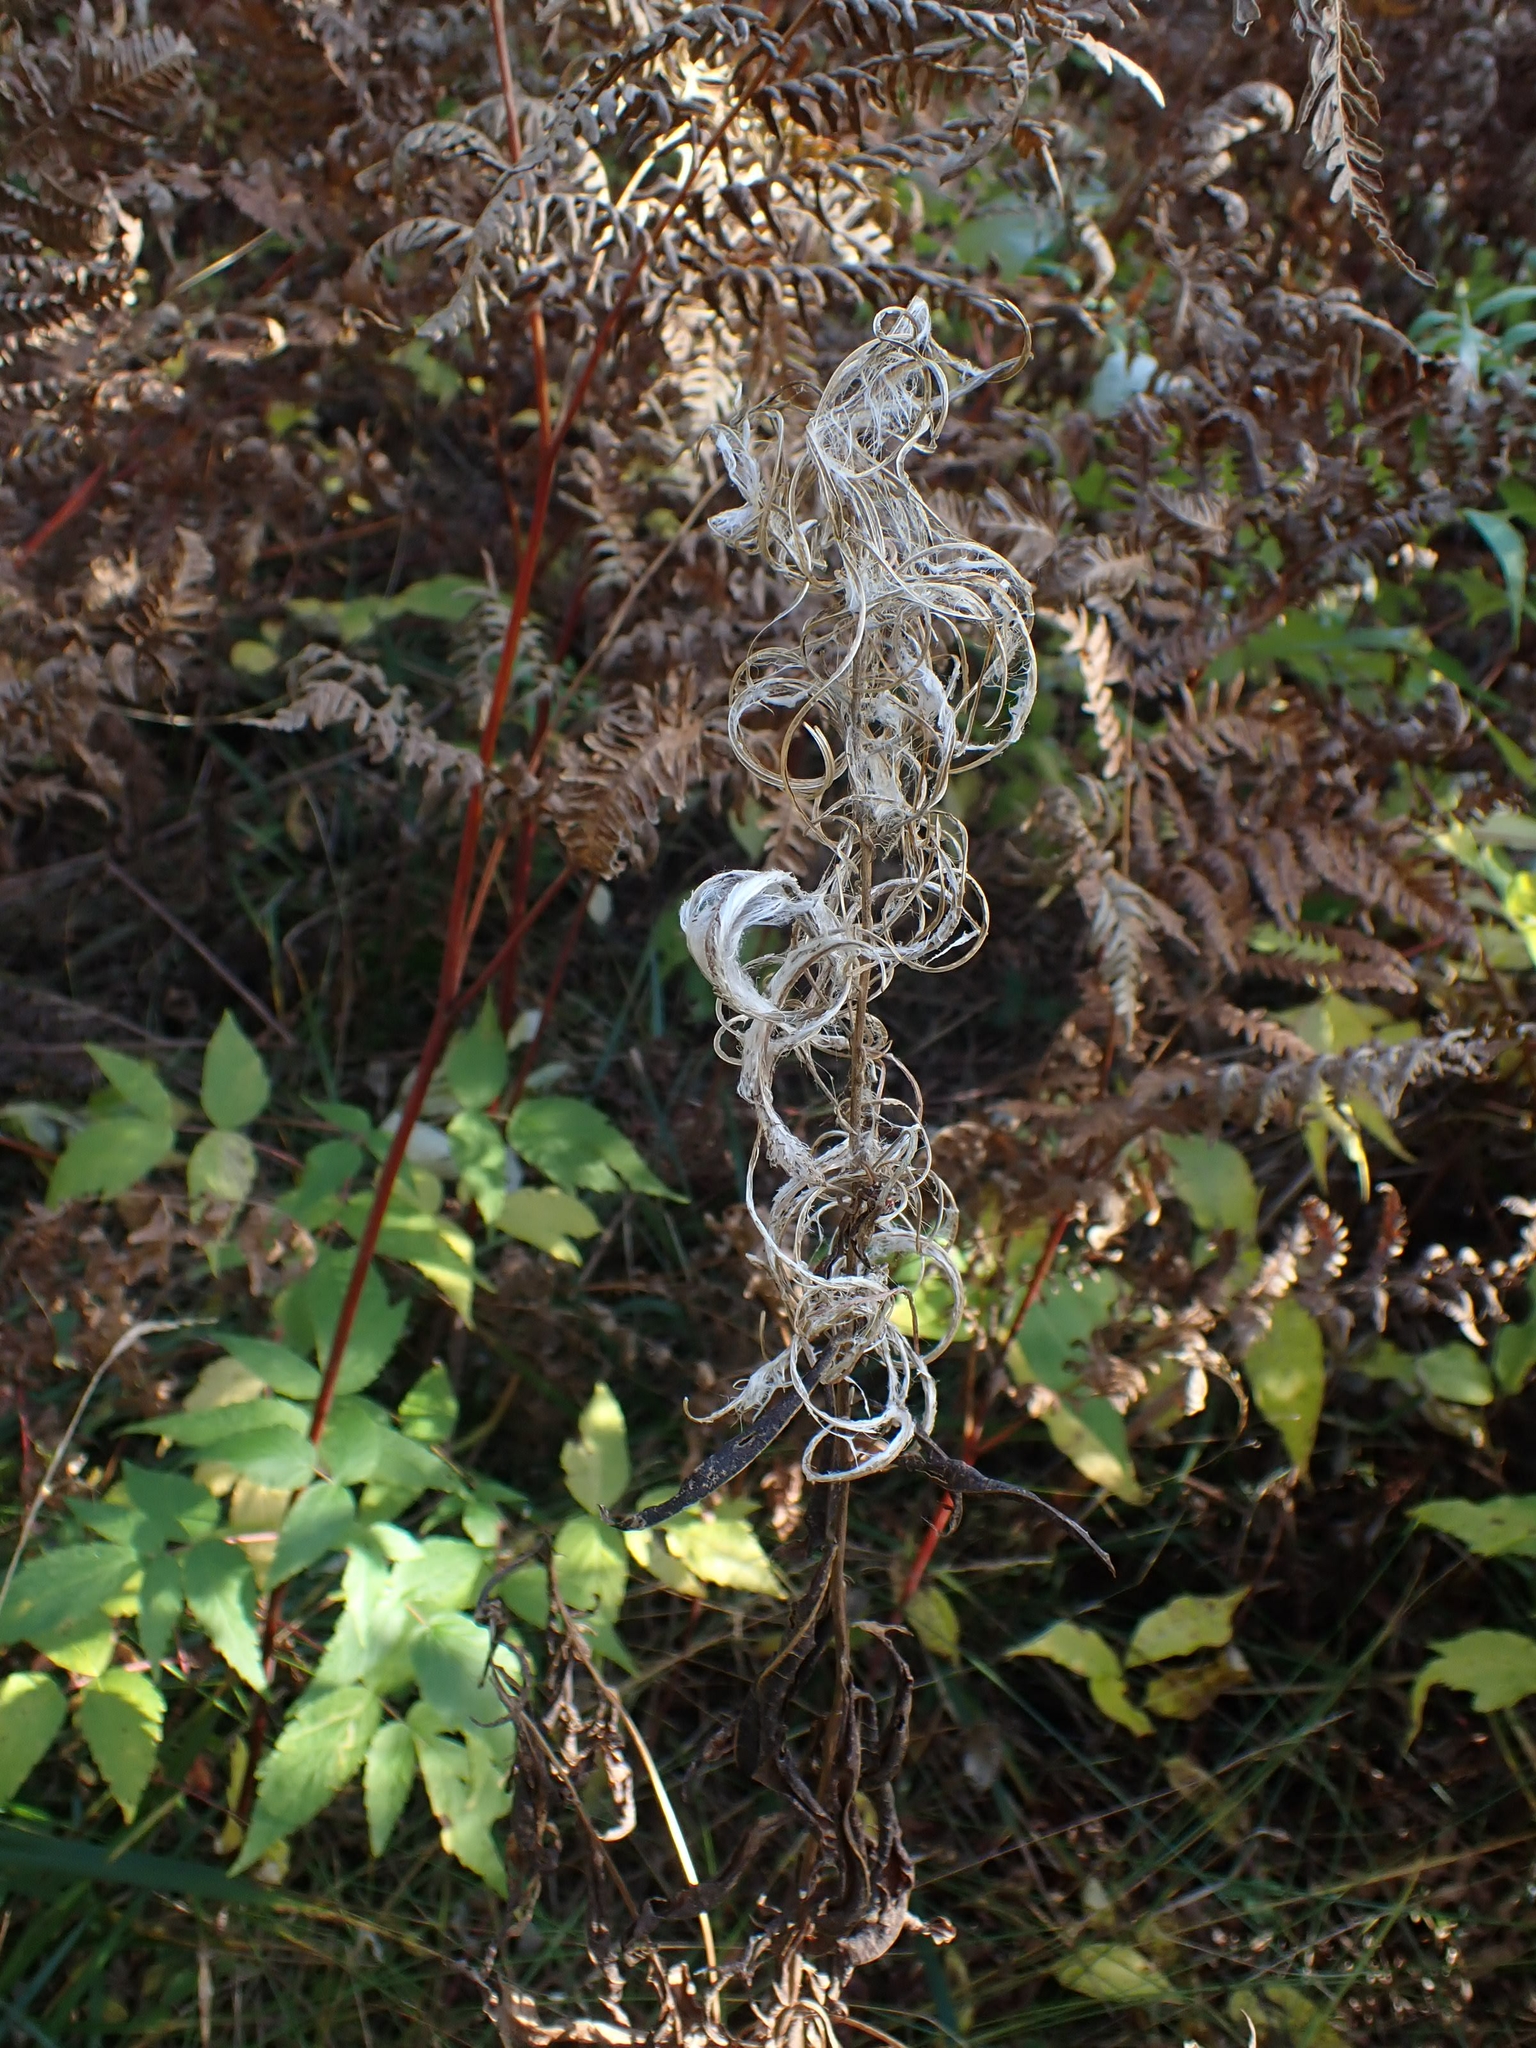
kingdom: Plantae
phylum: Tracheophyta
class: Magnoliopsida
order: Myrtales
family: Onagraceae
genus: Chamaenerion
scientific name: Chamaenerion angustifolium
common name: Fireweed
